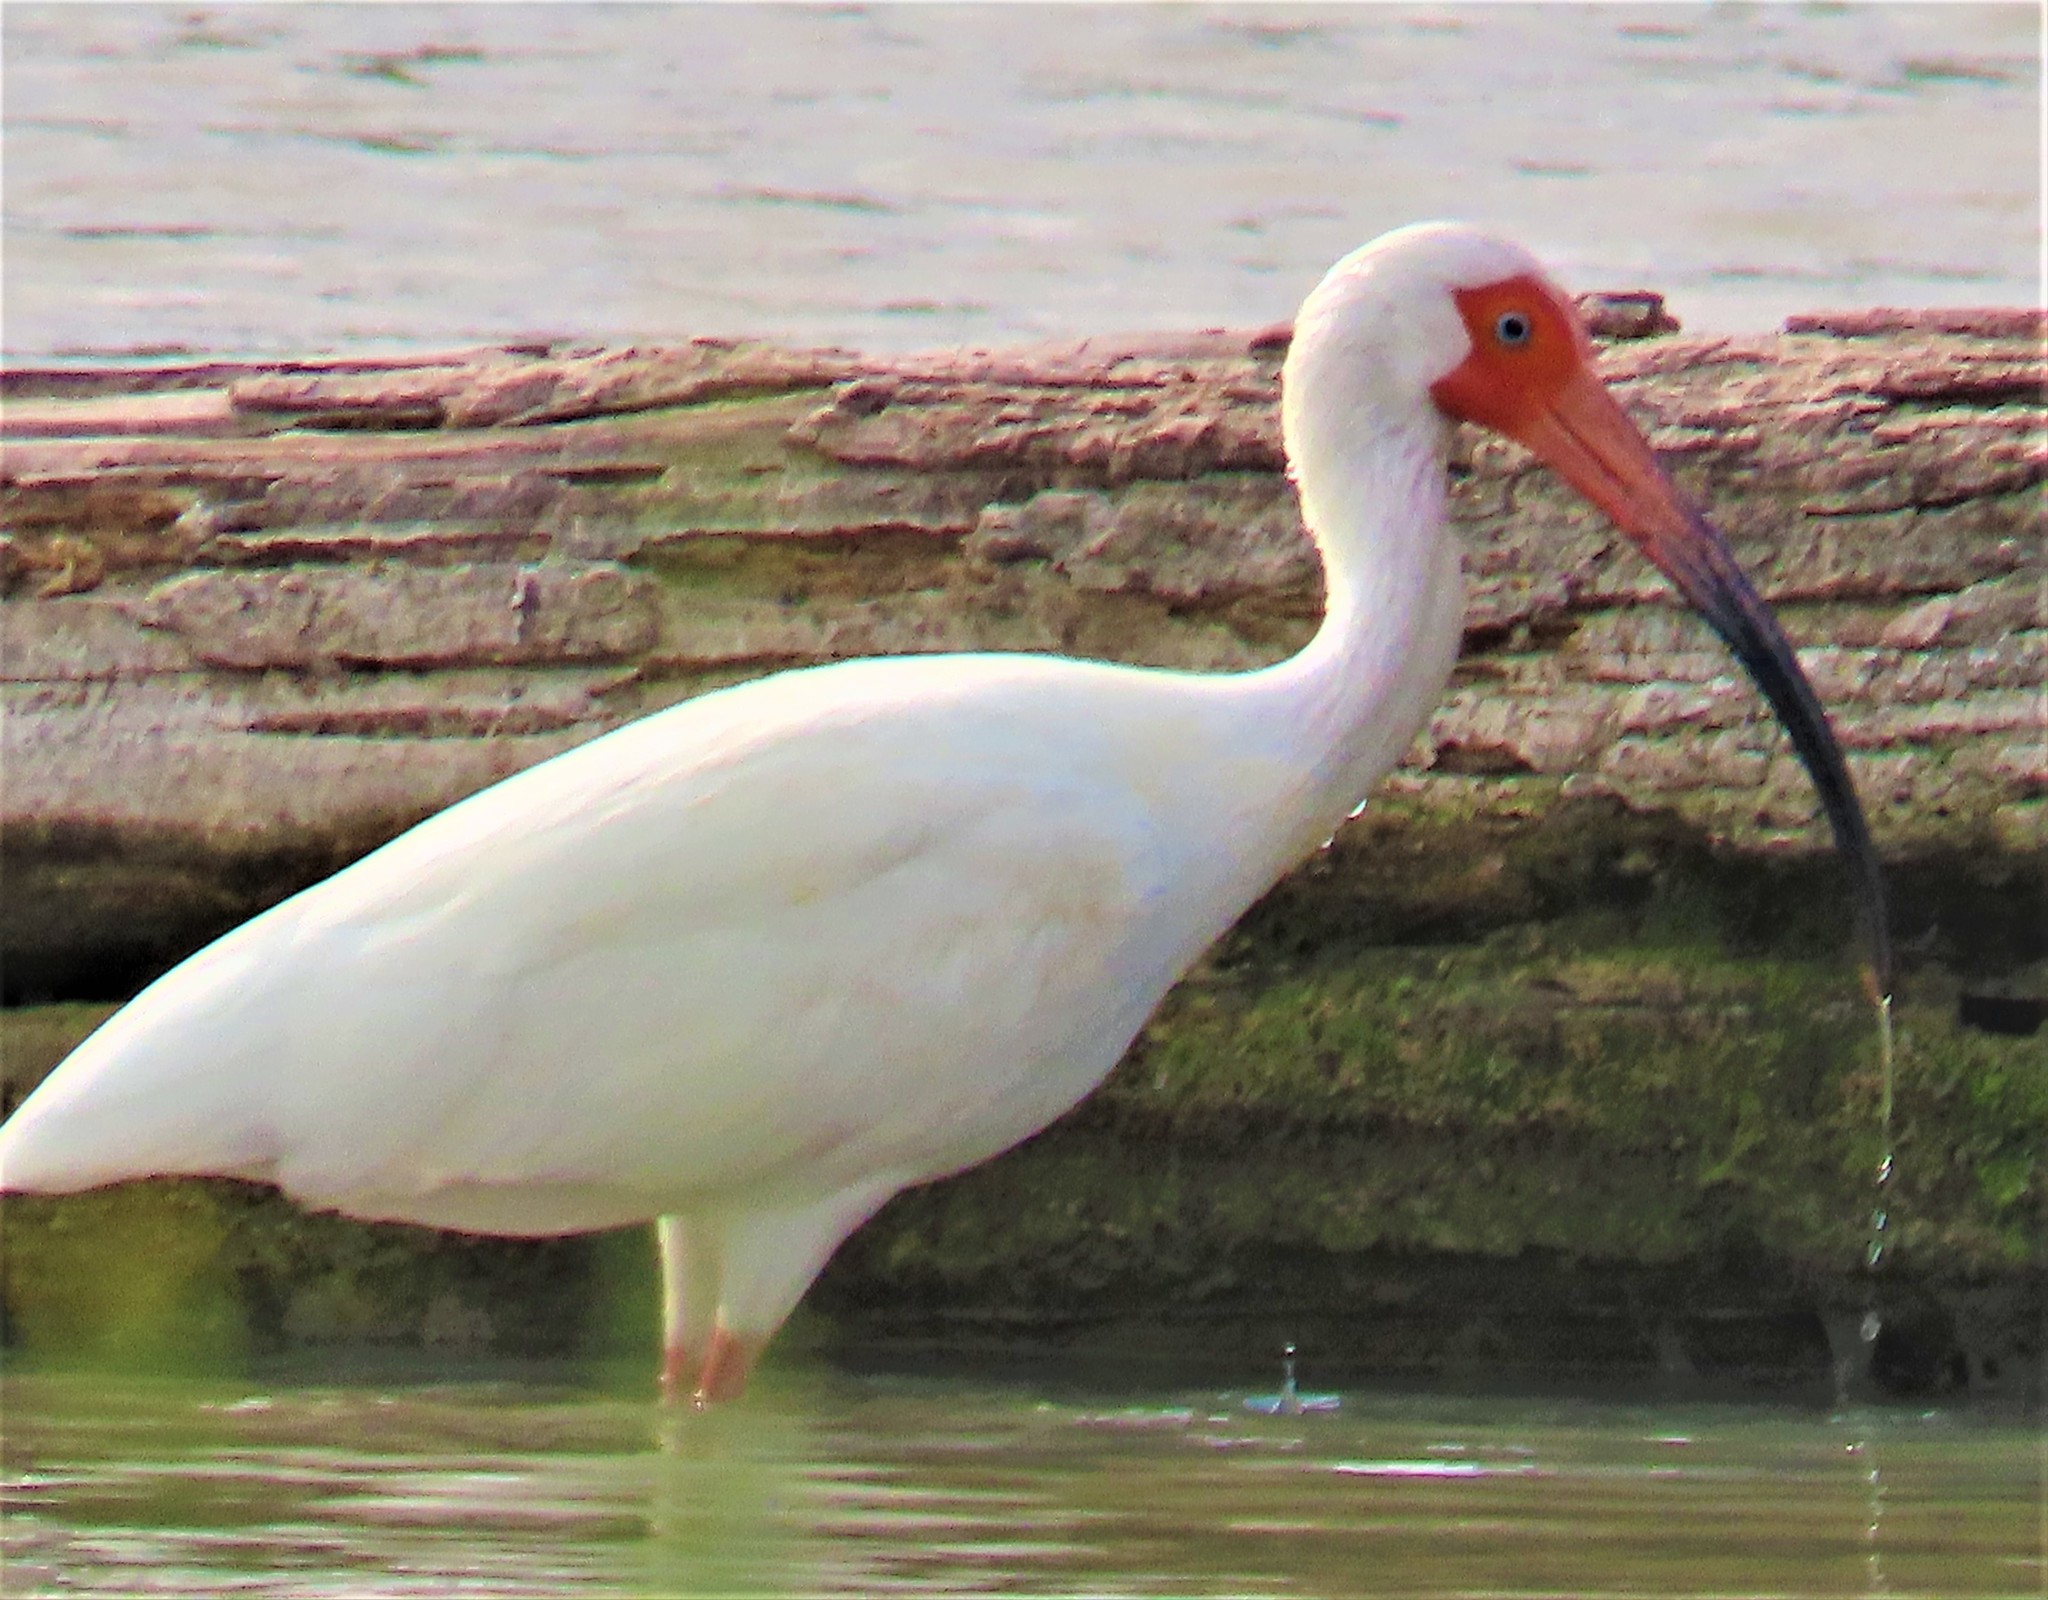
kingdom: Animalia
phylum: Chordata
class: Aves
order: Pelecaniformes
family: Threskiornithidae
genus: Eudocimus
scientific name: Eudocimus albus
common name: White ibis
